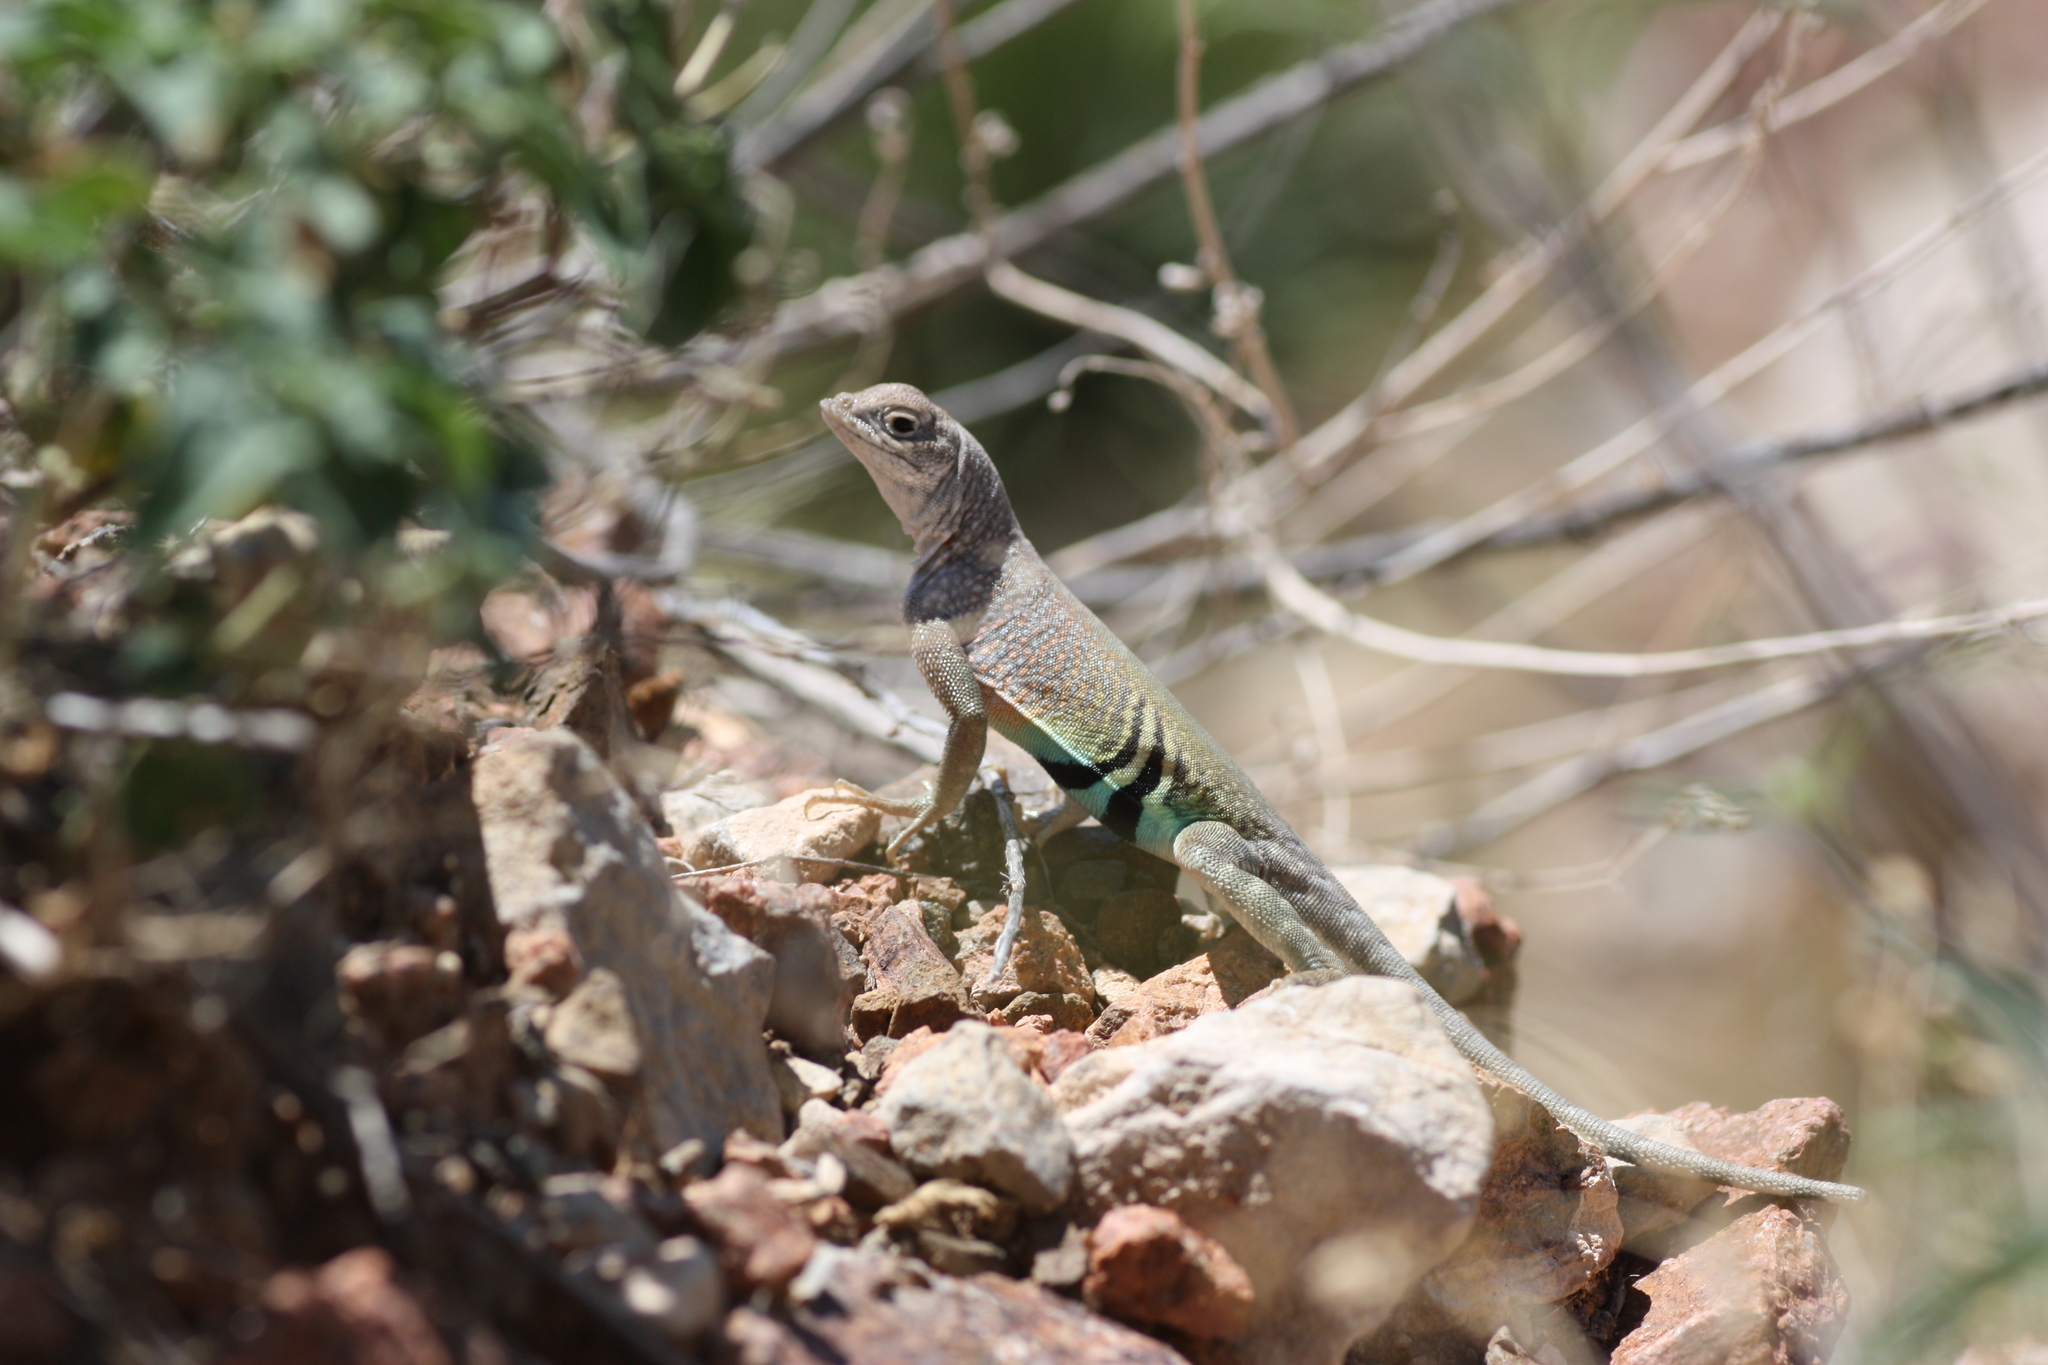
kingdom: Animalia
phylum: Chordata
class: Squamata
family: Phrynosomatidae
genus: Cophosaurus
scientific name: Cophosaurus texanus
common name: Greater earless lizard
